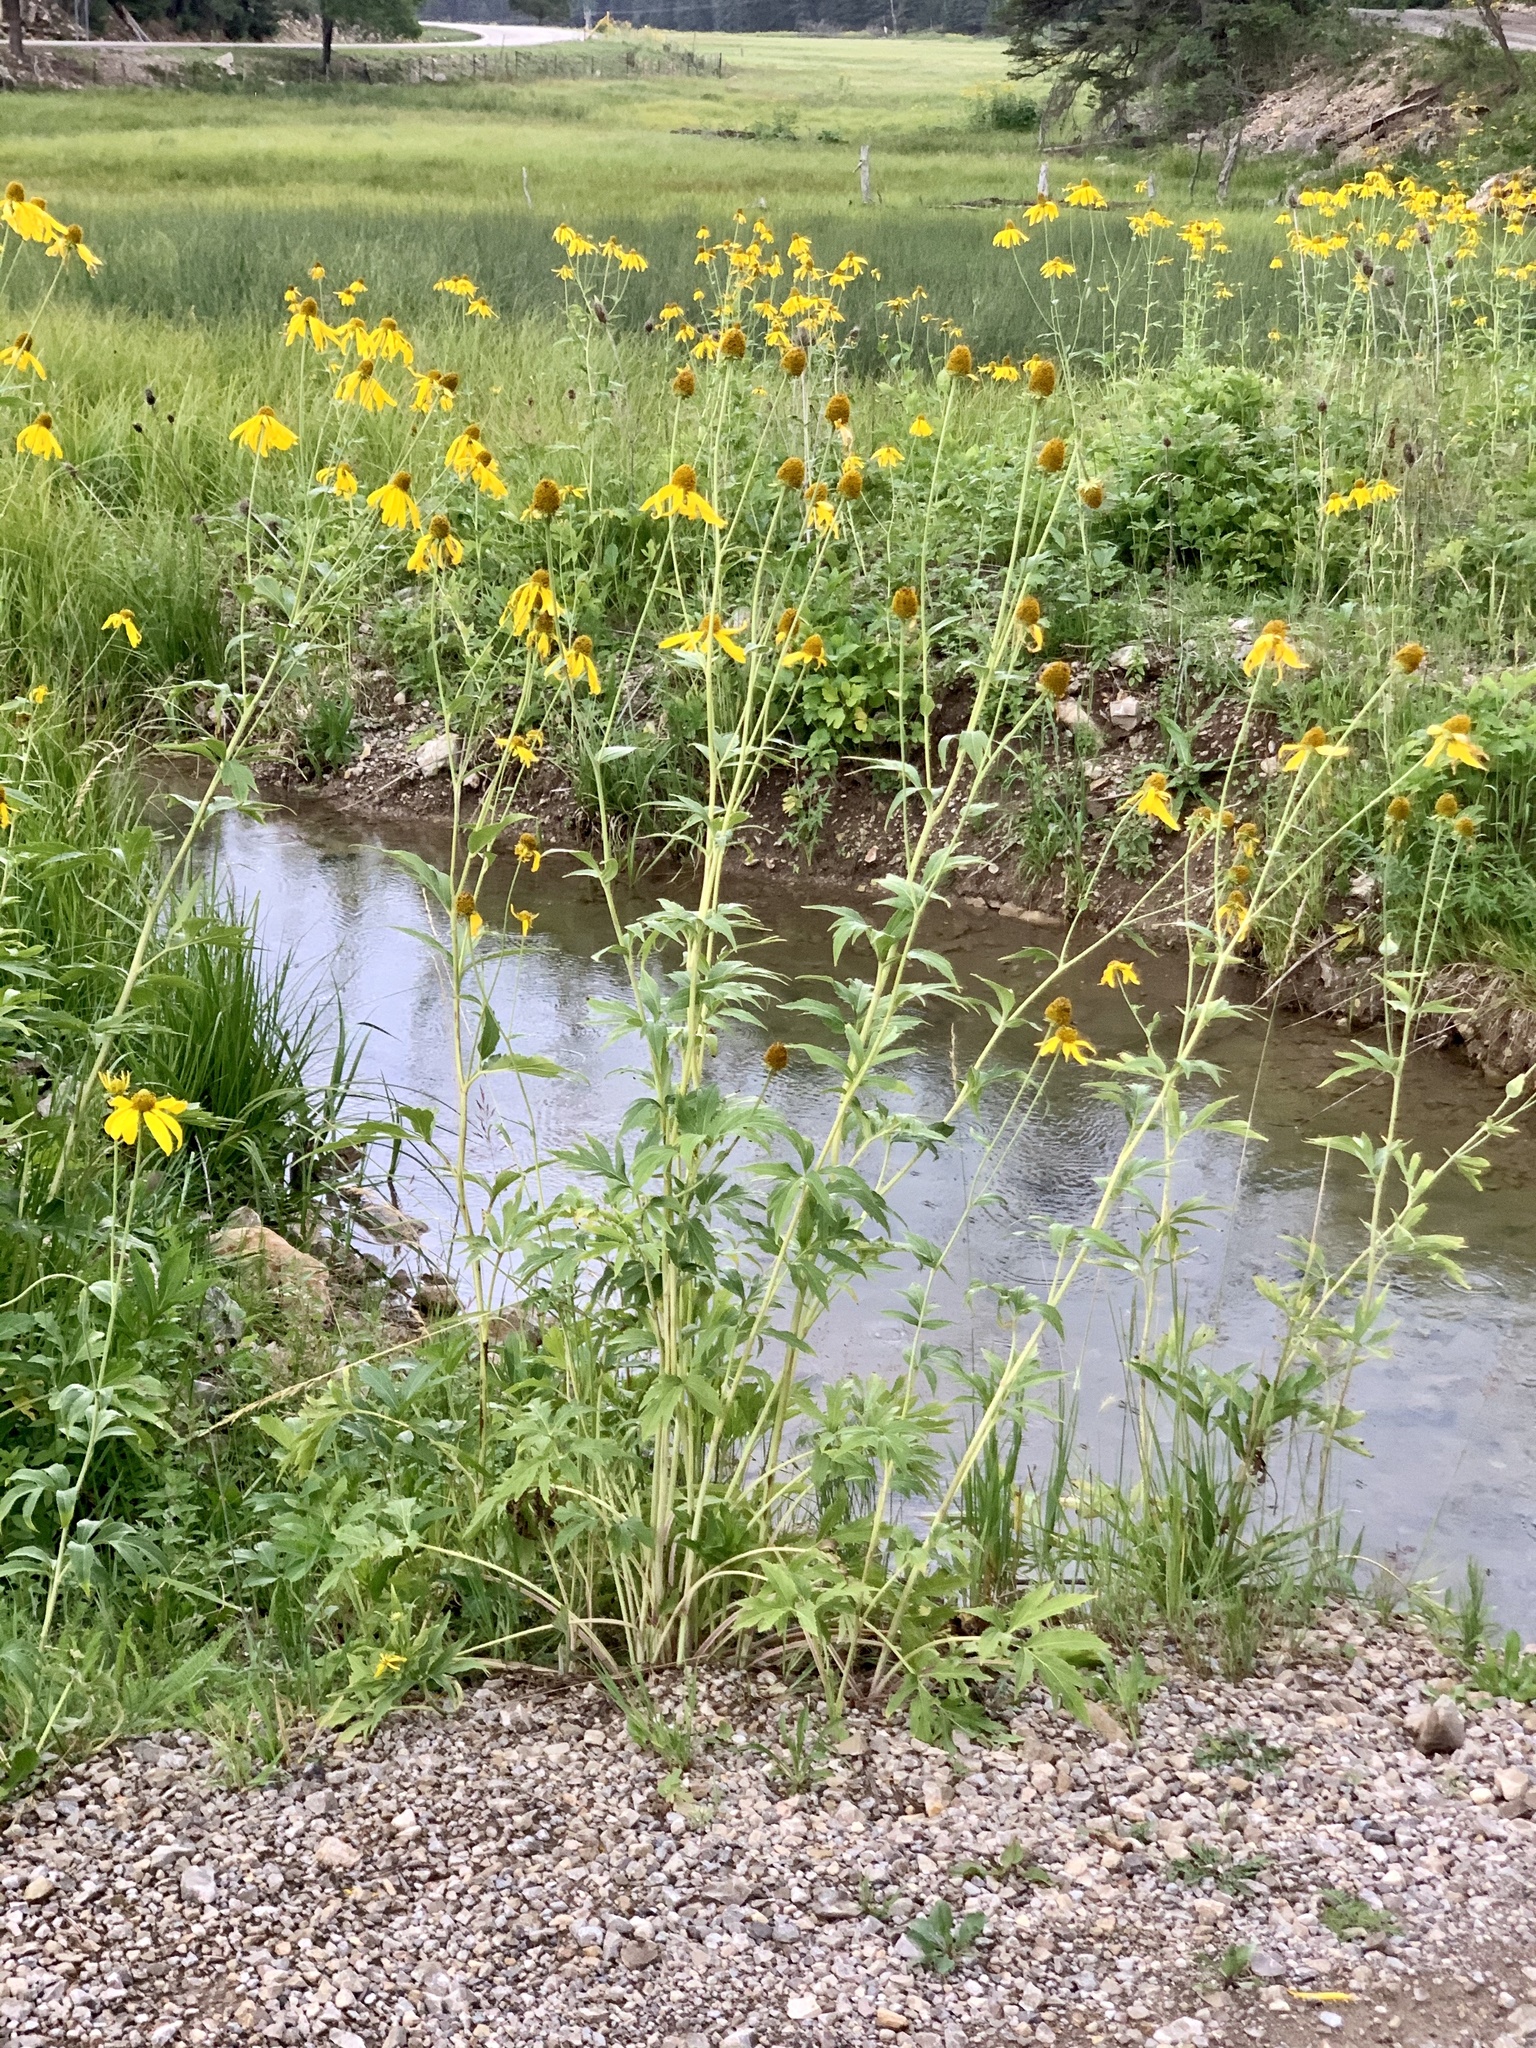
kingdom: Plantae
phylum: Tracheophyta
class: Magnoliopsida
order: Asterales
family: Asteraceae
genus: Rudbeckia
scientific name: Rudbeckia laciniata
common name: Coneflower
